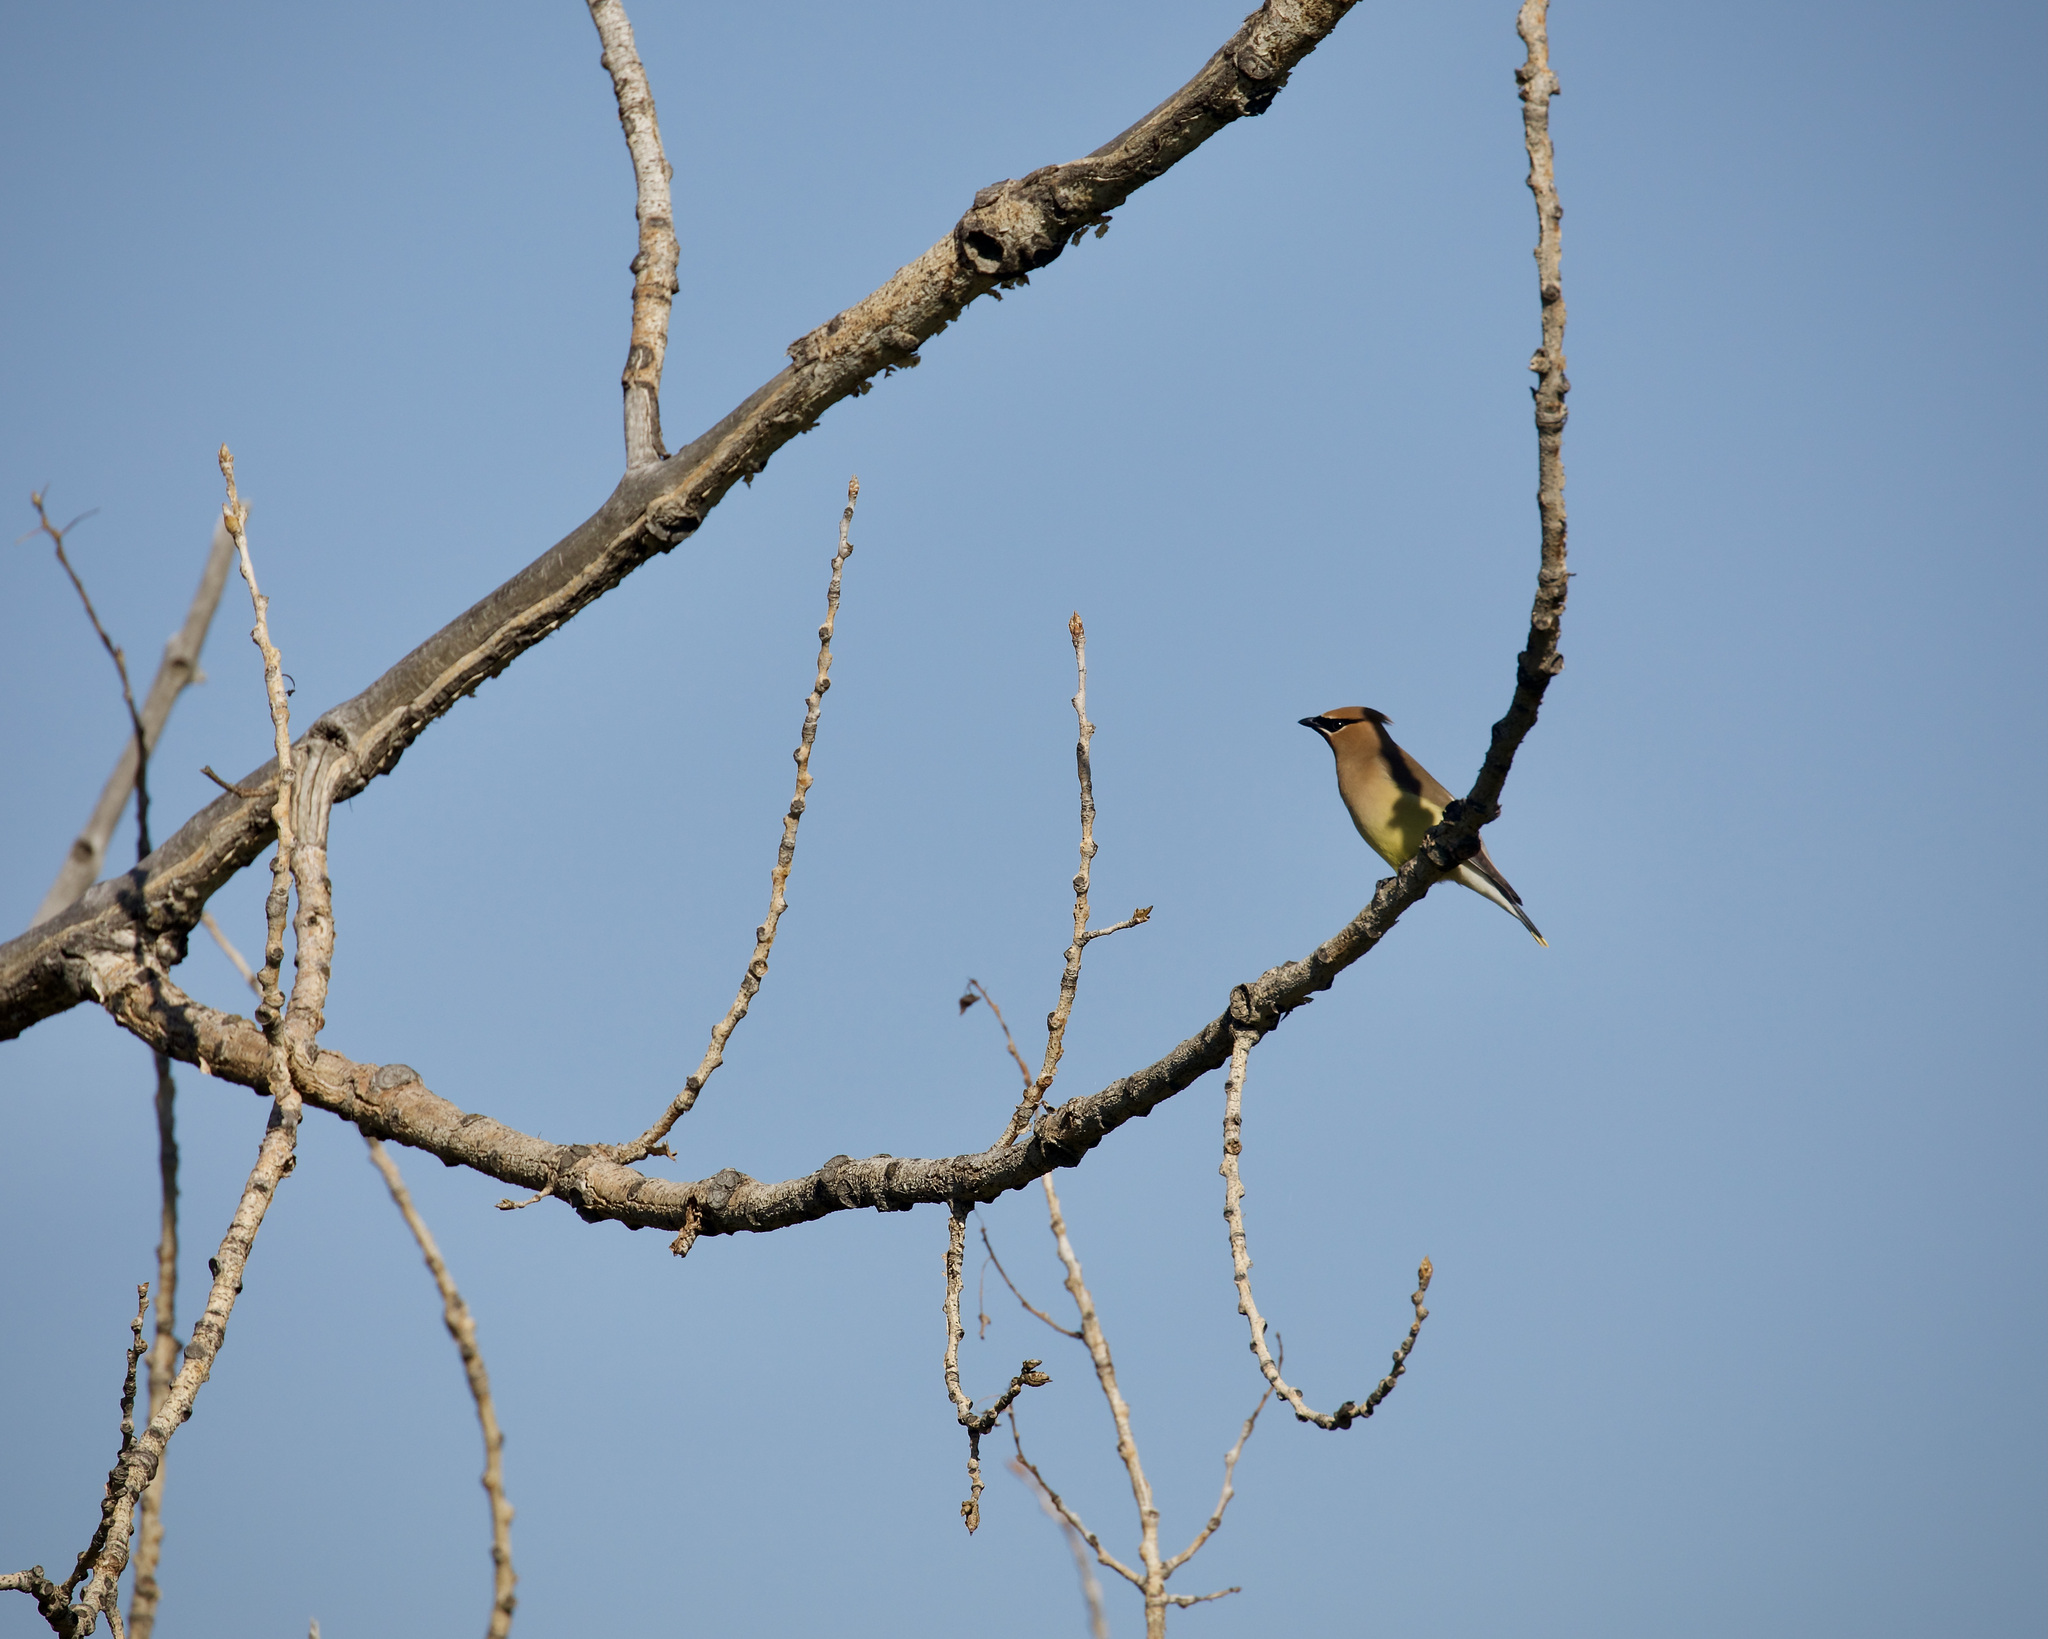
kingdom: Animalia
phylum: Chordata
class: Aves
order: Passeriformes
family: Bombycillidae
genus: Bombycilla
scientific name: Bombycilla cedrorum
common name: Cedar waxwing
